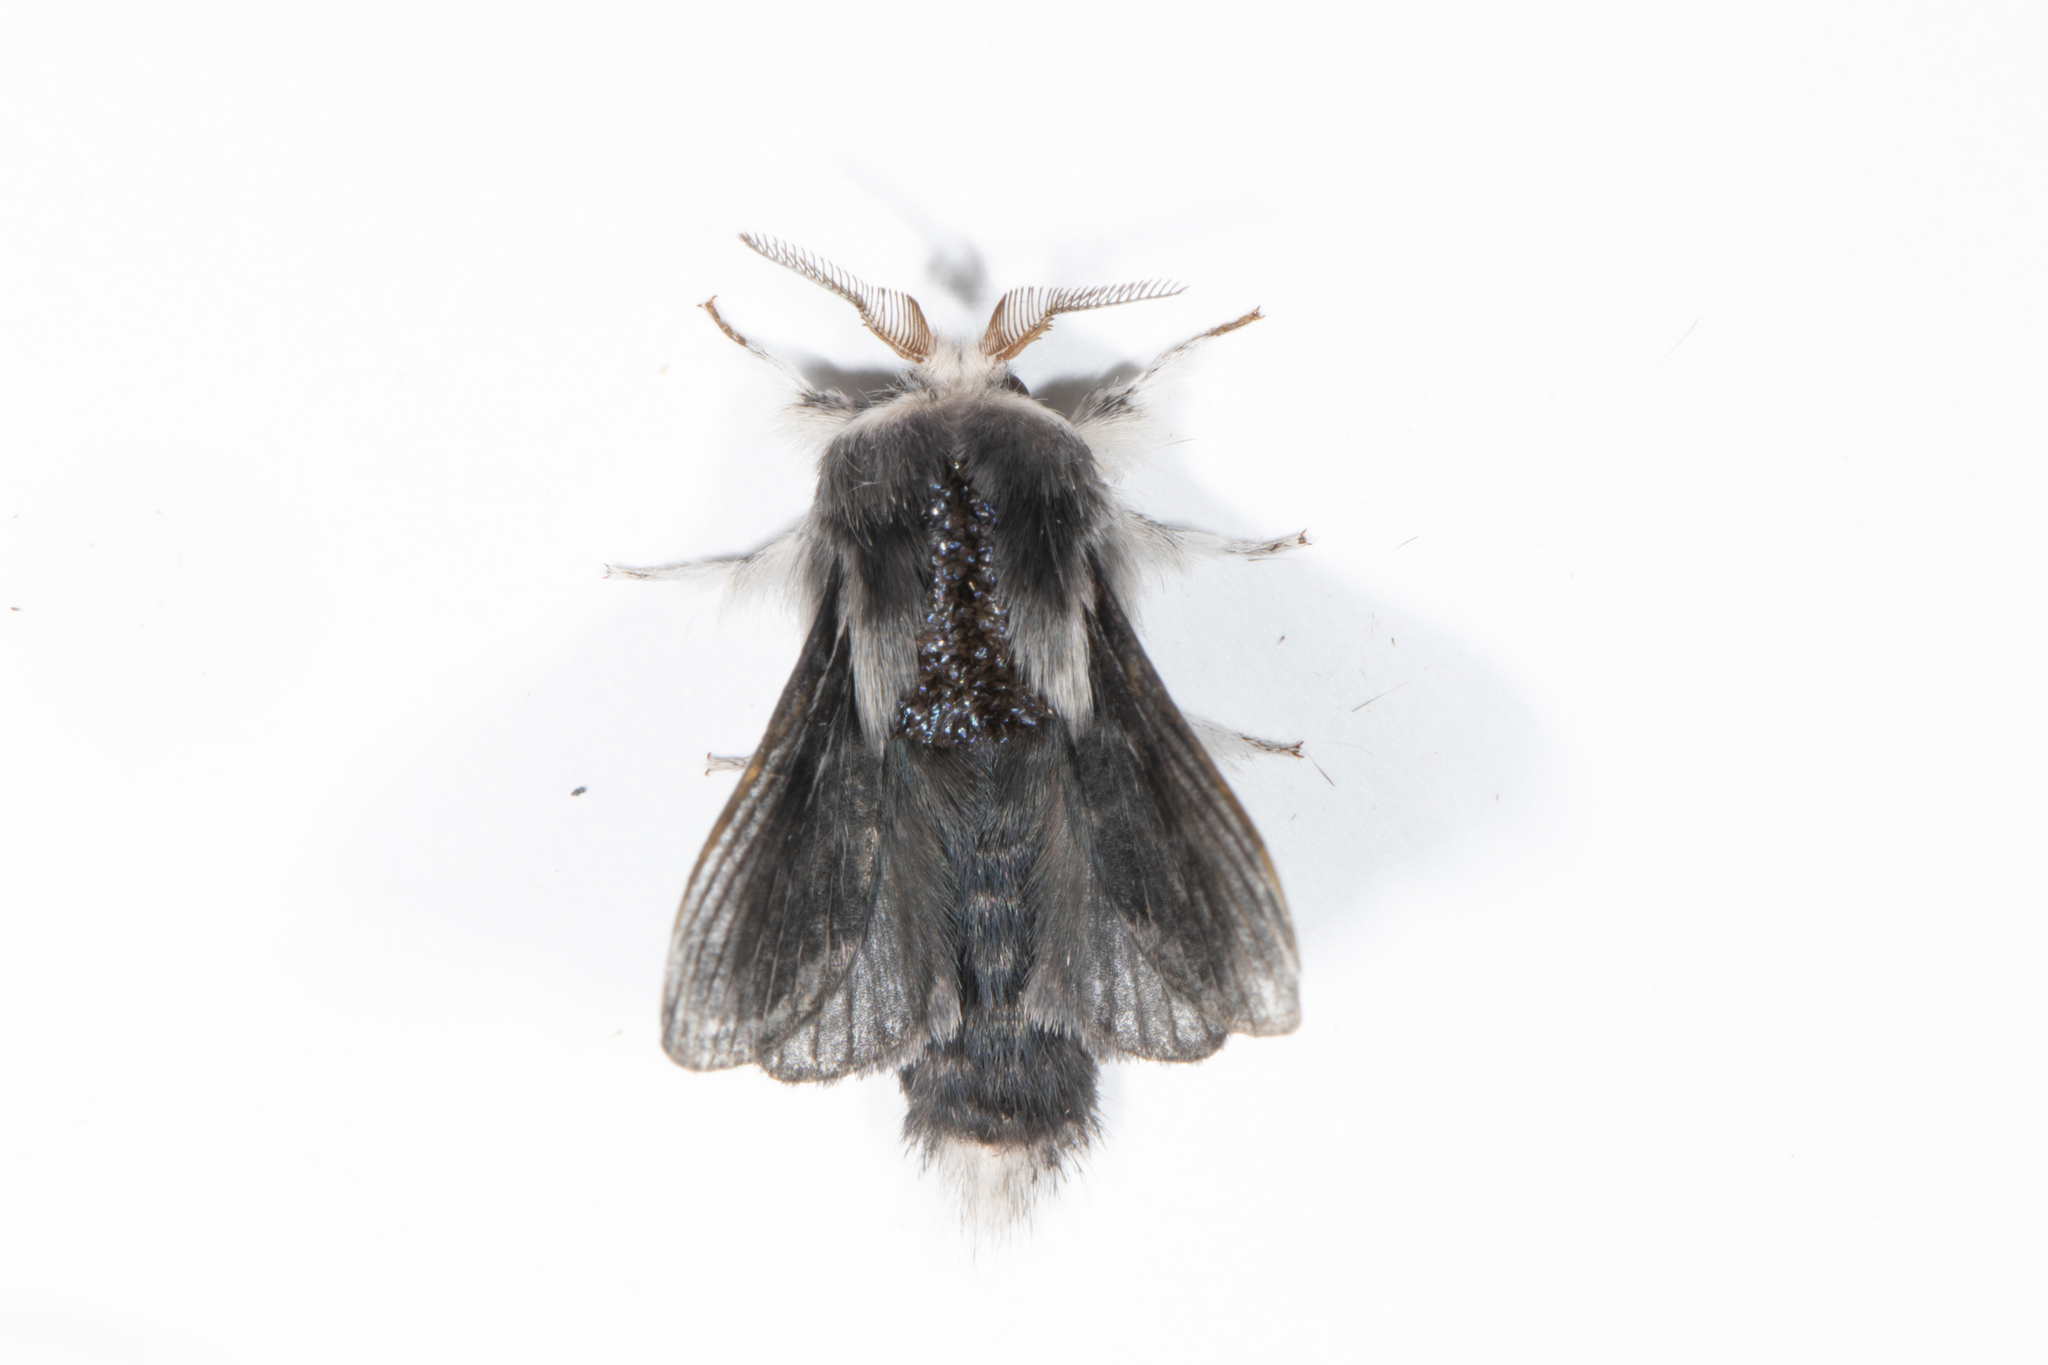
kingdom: Animalia
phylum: Arthropoda
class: Insecta
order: Lepidoptera
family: Lasiocampidae
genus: Tolype
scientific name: Tolype laricis
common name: Larch tolype moth
